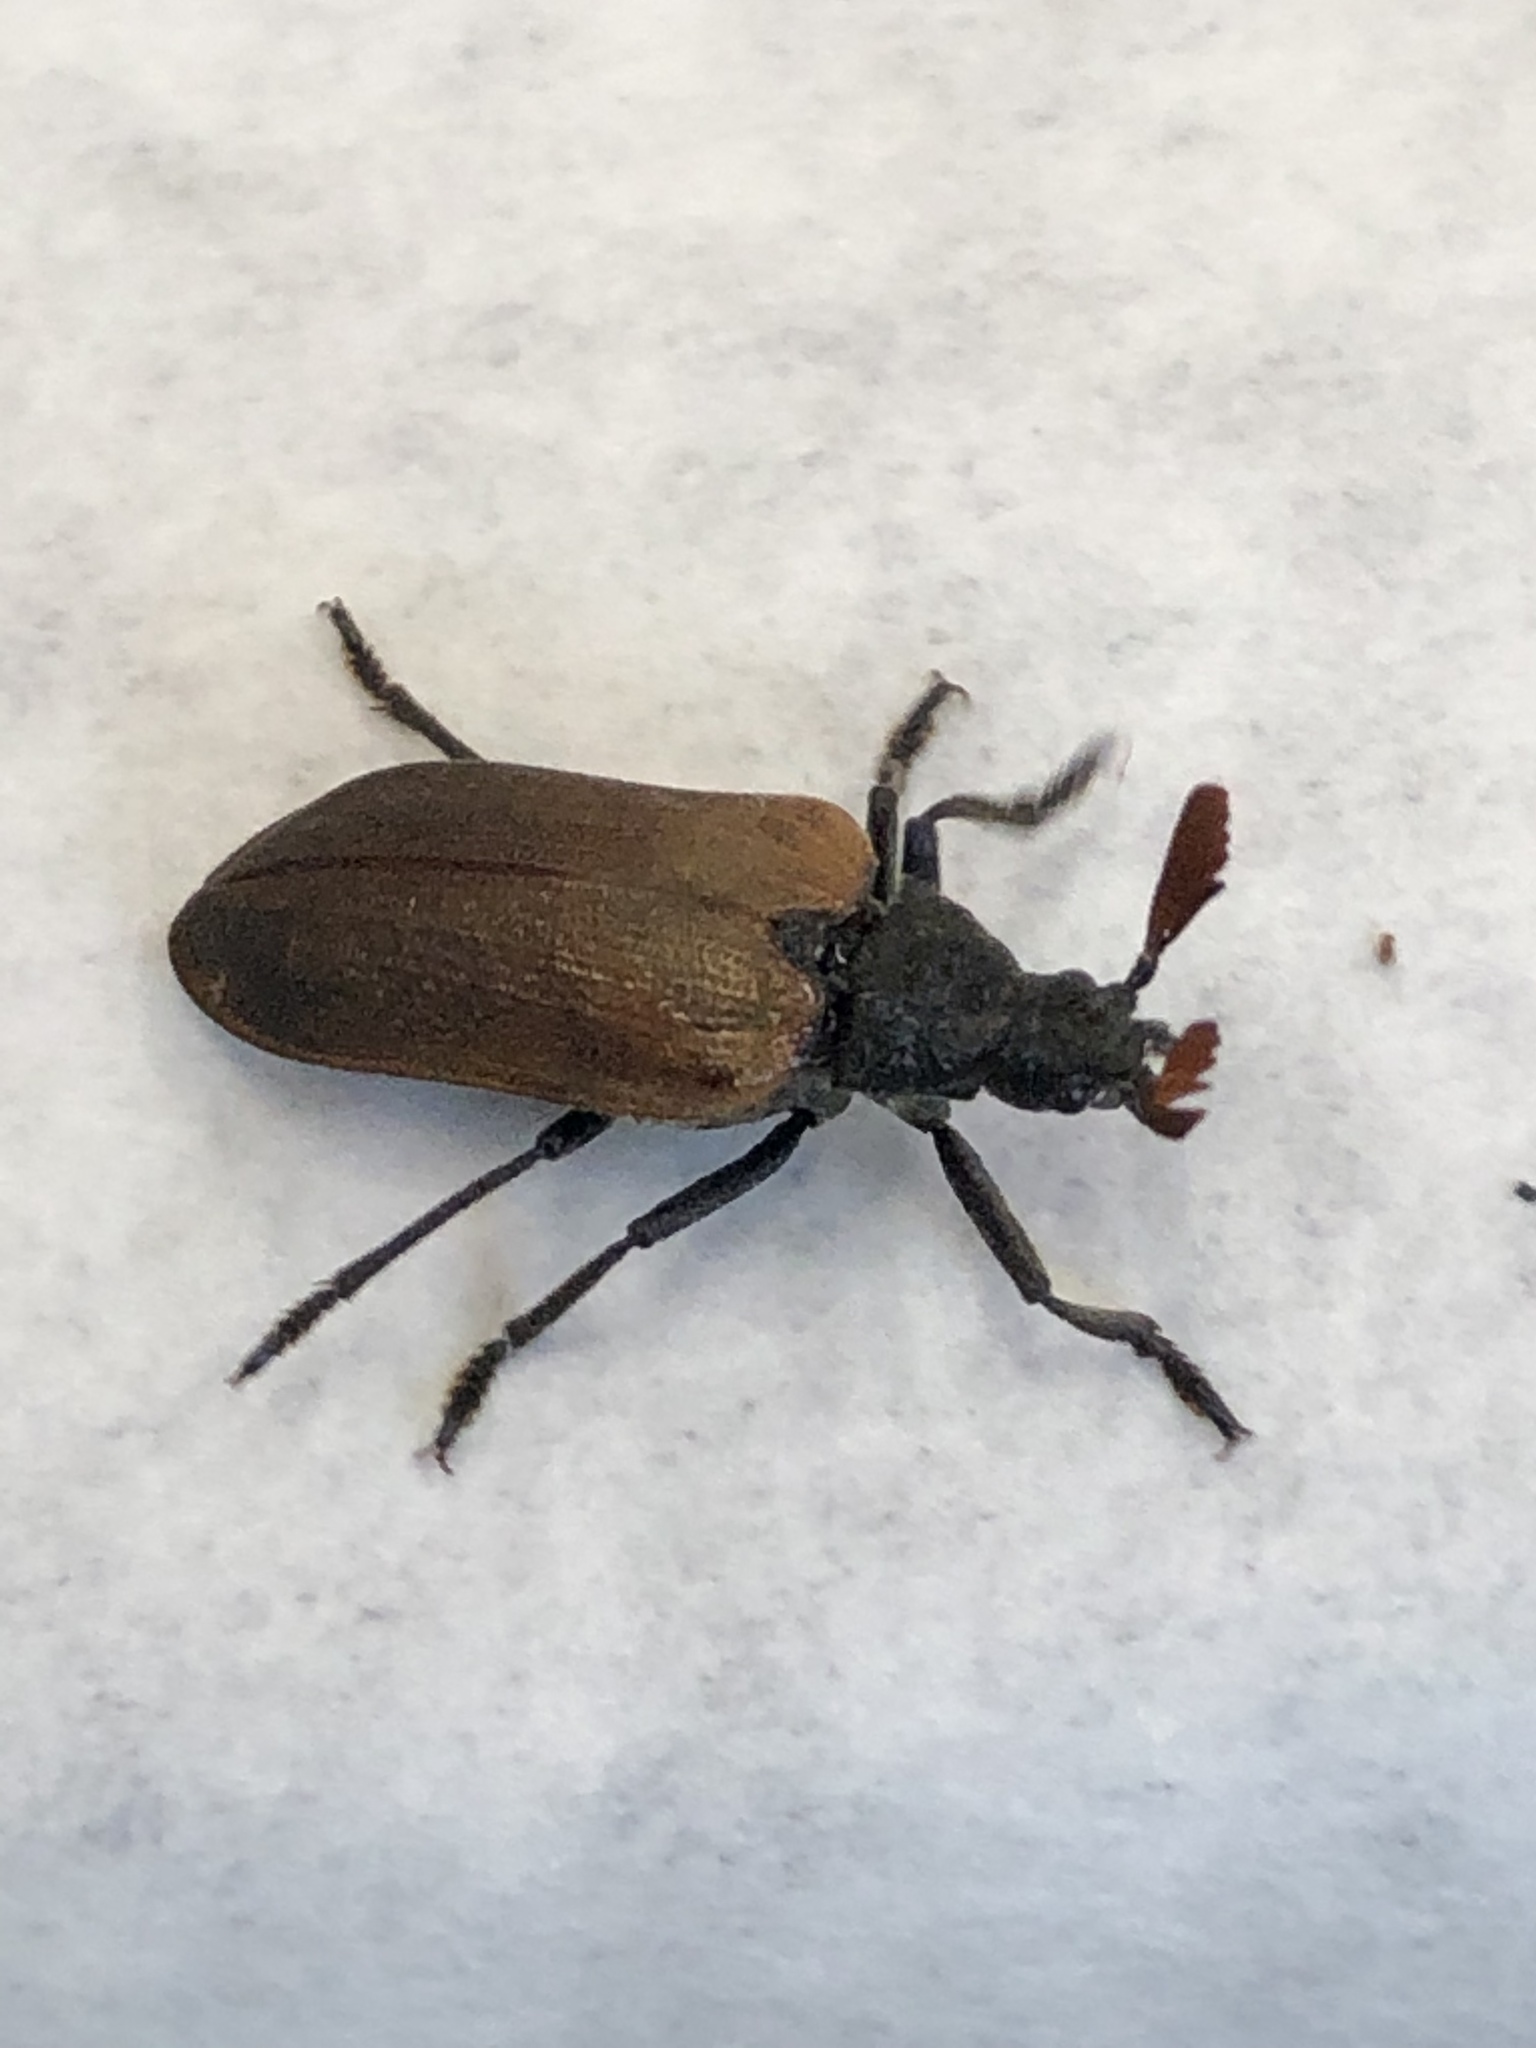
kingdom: Animalia
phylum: Arthropoda
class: Insecta
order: Coleoptera
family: Rhipiceridae
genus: Sandalus
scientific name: Sandalus niger
